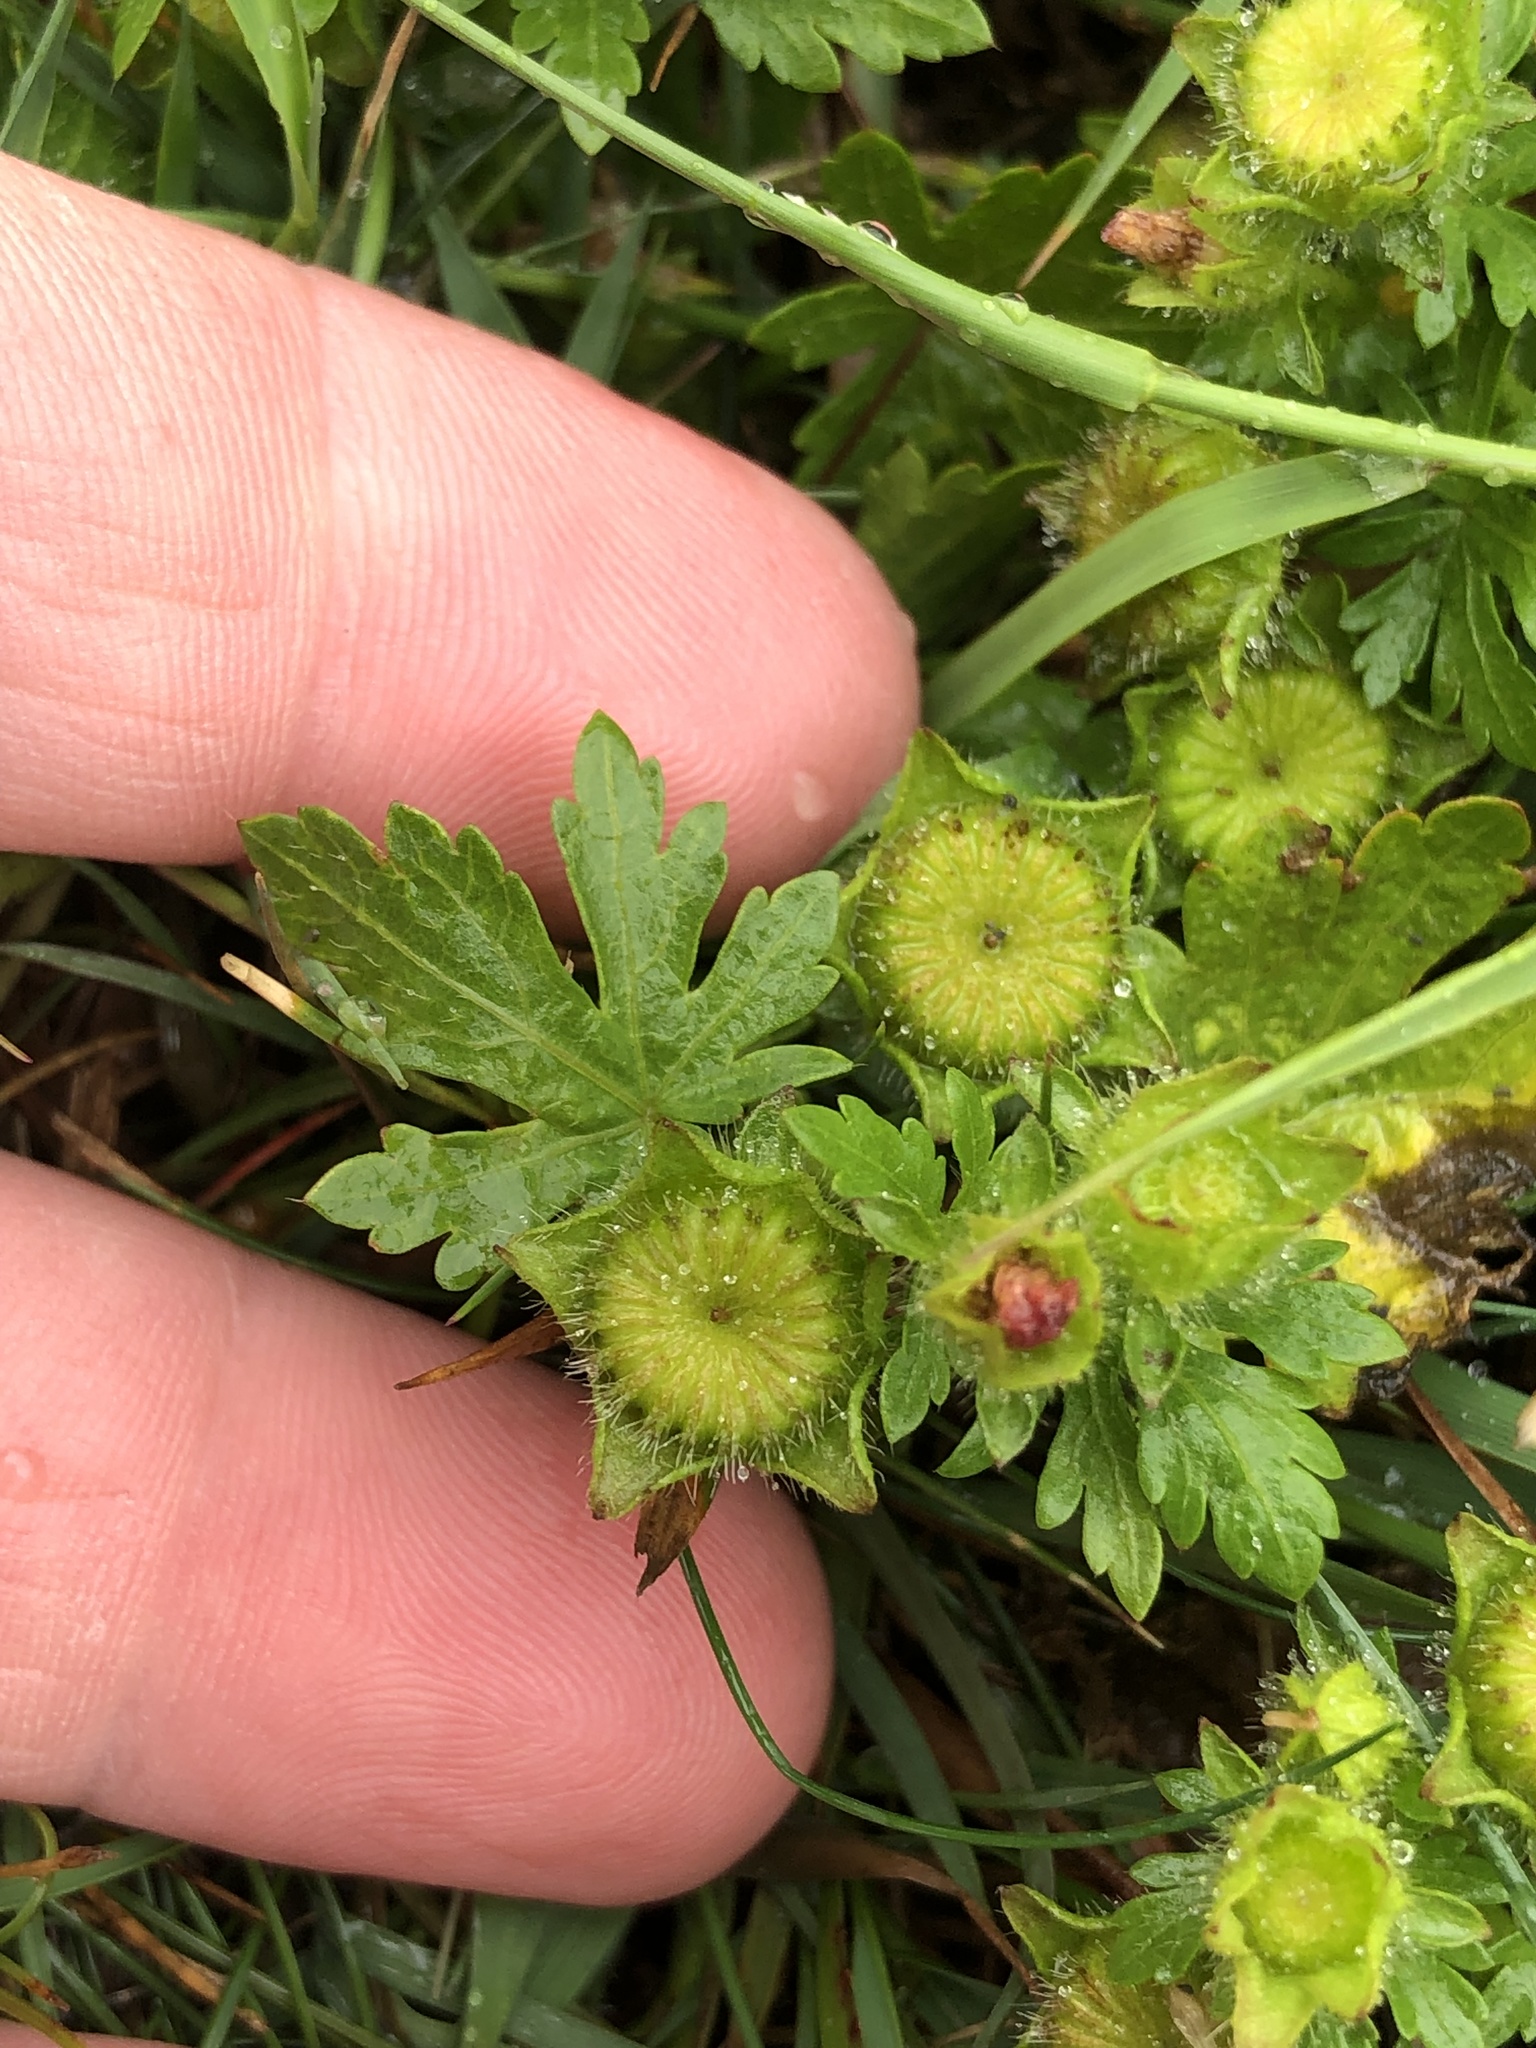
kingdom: Plantae
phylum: Tracheophyta
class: Magnoliopsida
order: Malvales
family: Malvaceae
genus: Modiola
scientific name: Modiola caroliniana
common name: Carolina bristlemallow
